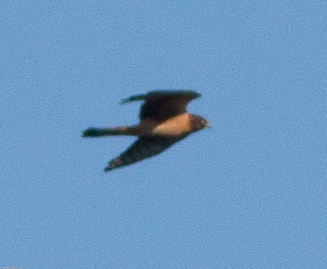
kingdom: Animalia
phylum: Chordata
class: Aves
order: Accipitriformes
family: Accipitridae
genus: Circus
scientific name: Circus cyaneus
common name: Hen harrier
